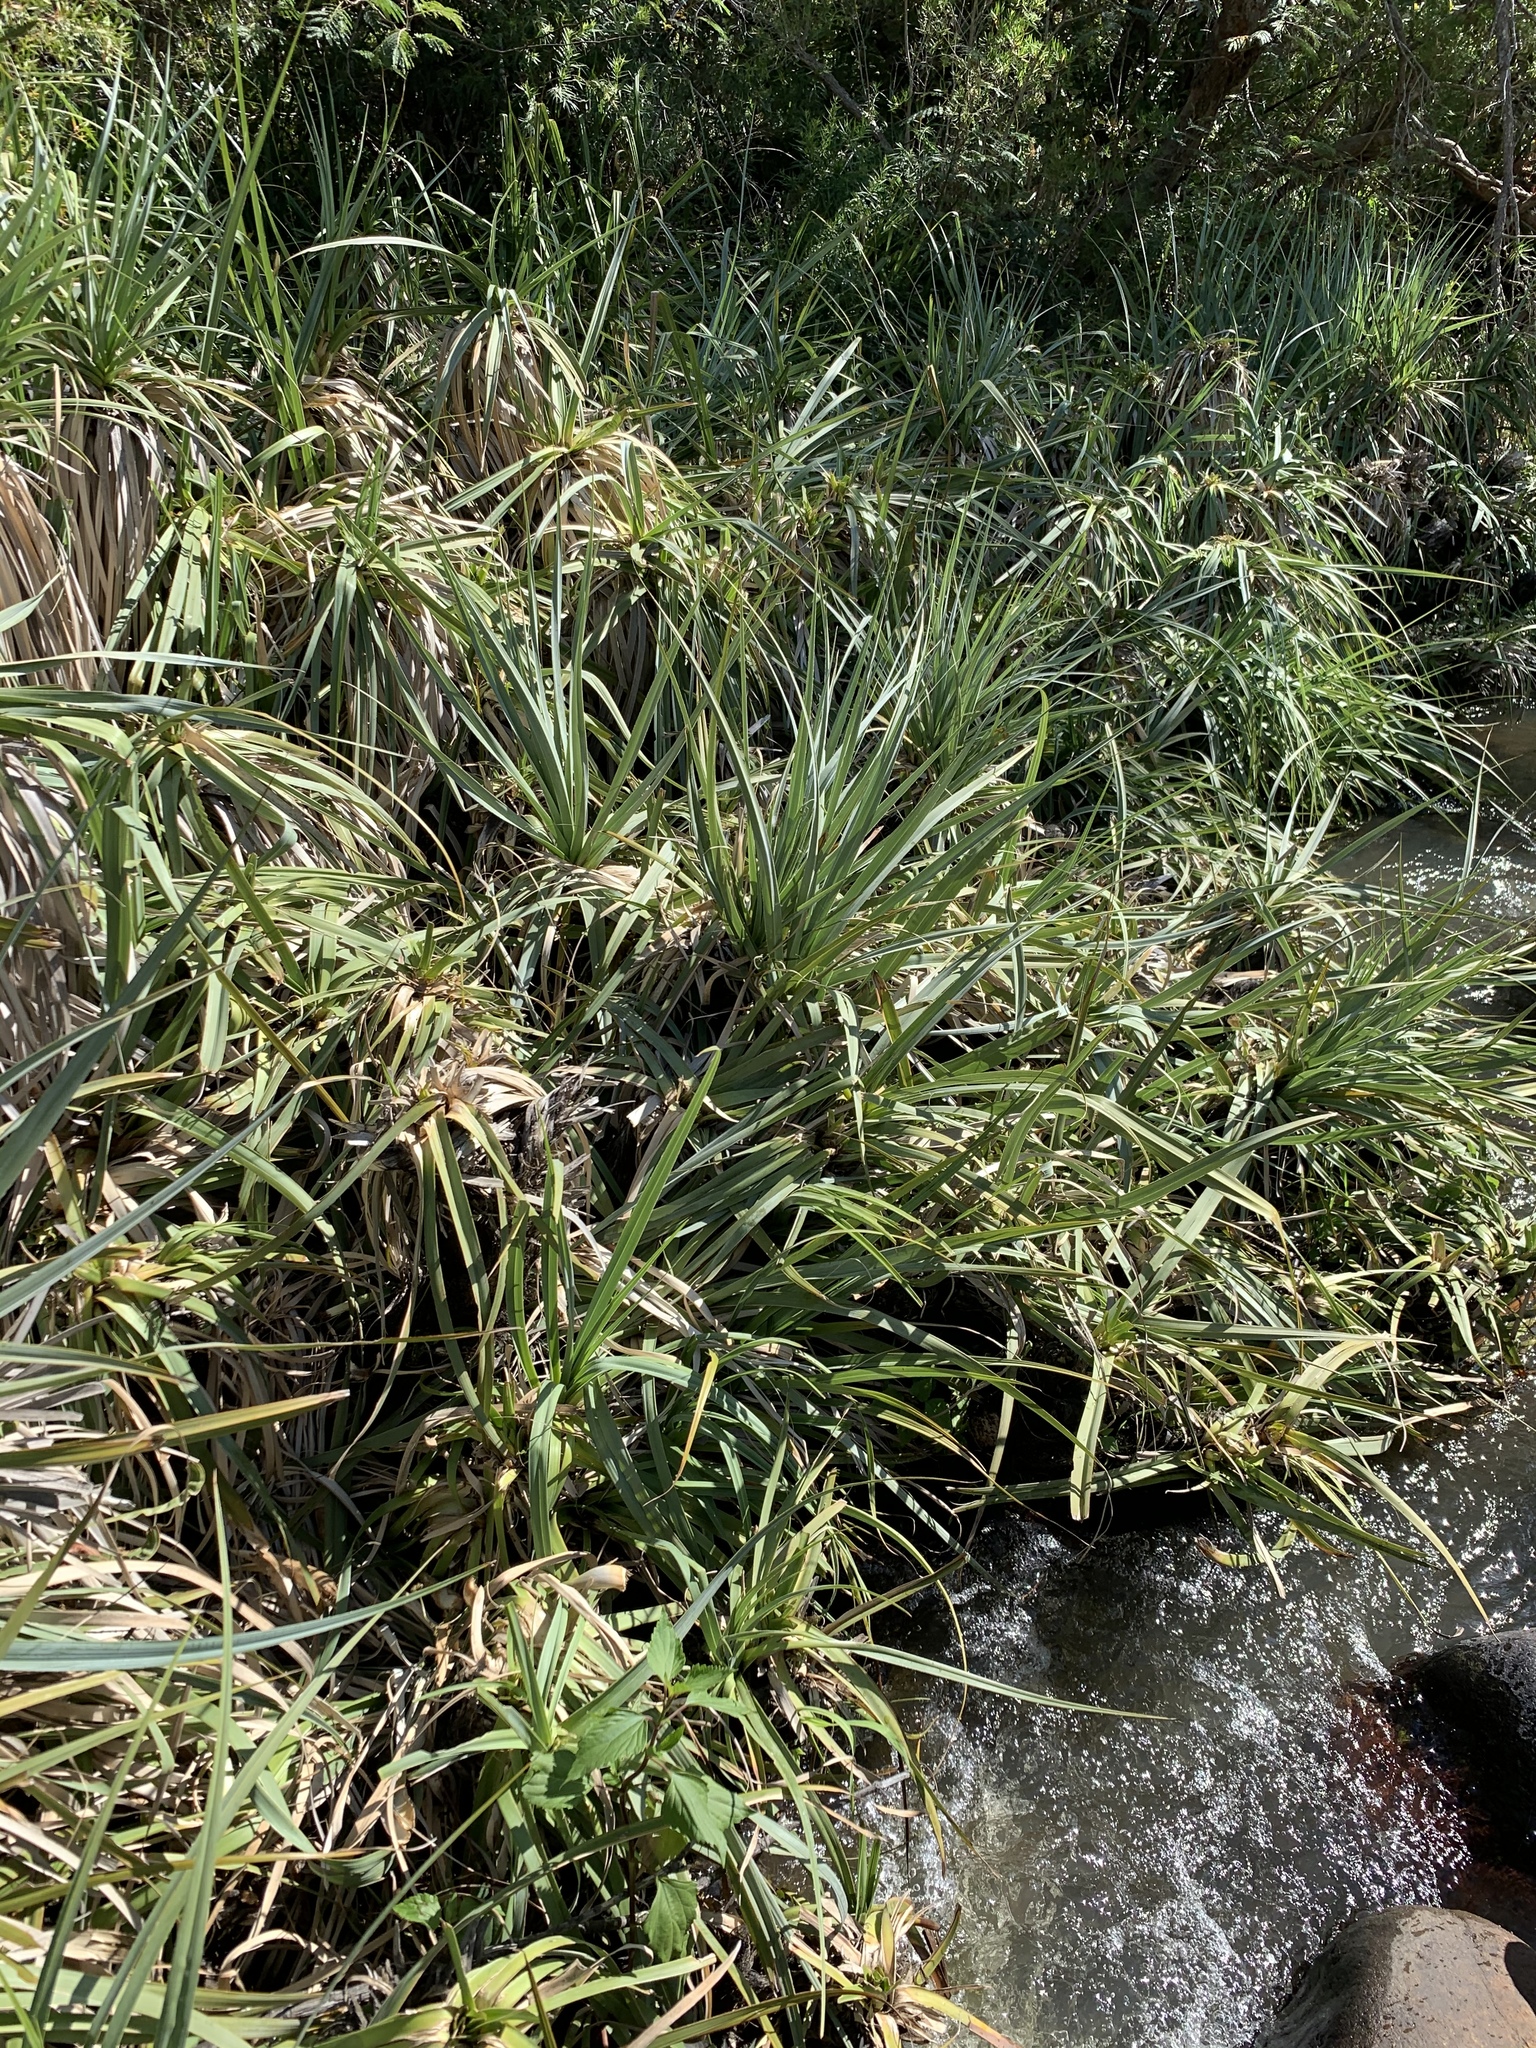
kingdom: Plantae
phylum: Tracheophyta
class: Liliopsida
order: Poales
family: Thurniaceae
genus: Prionium
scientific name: Prionium serratum
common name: Palmiet
